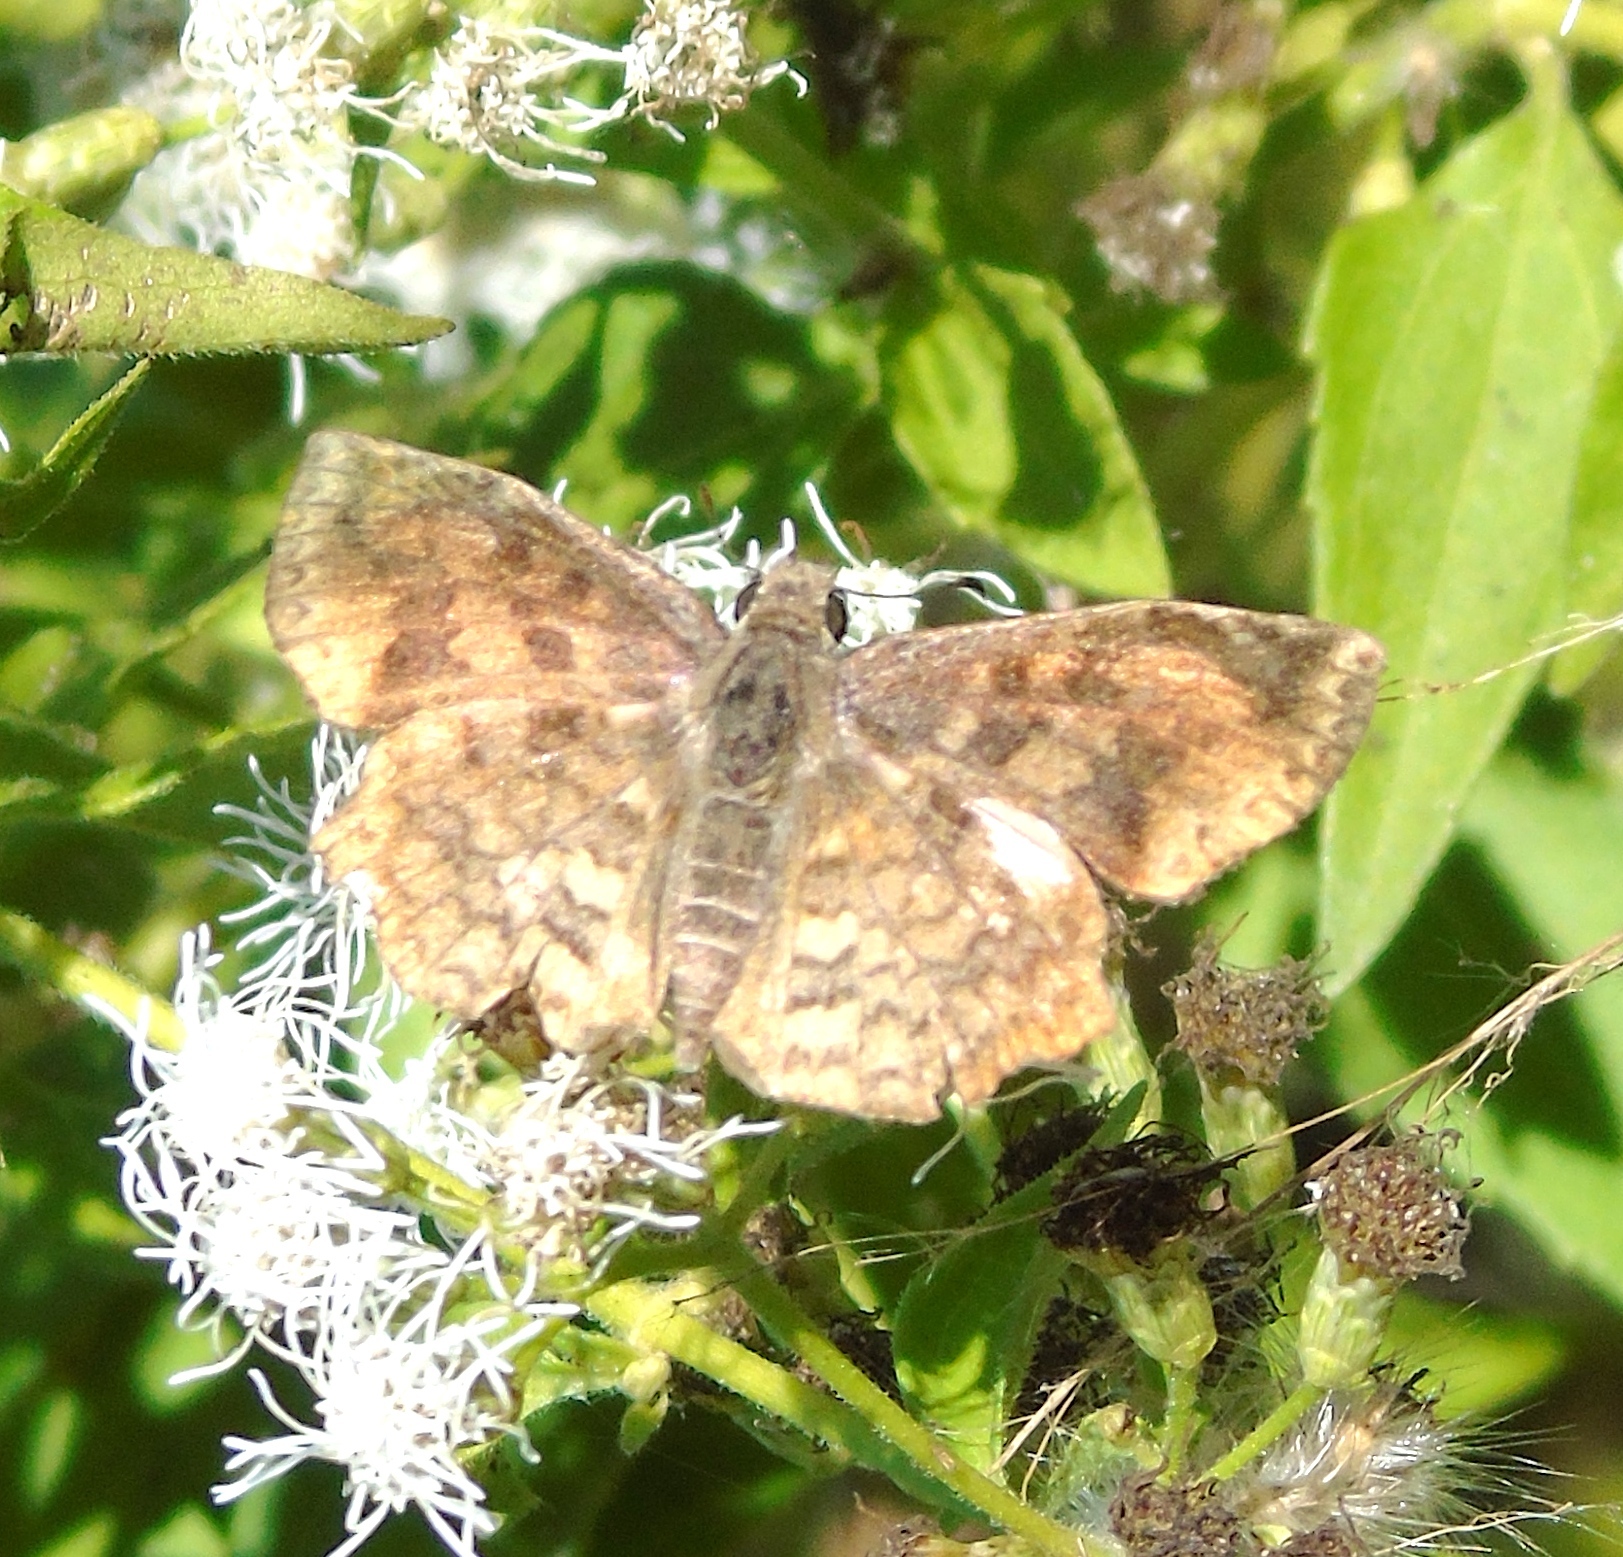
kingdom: Animalia
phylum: Arthropoda
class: Insecta
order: Lepidoptera
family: Hesperiidae
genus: Antigonus
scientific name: Antigonus erosus
